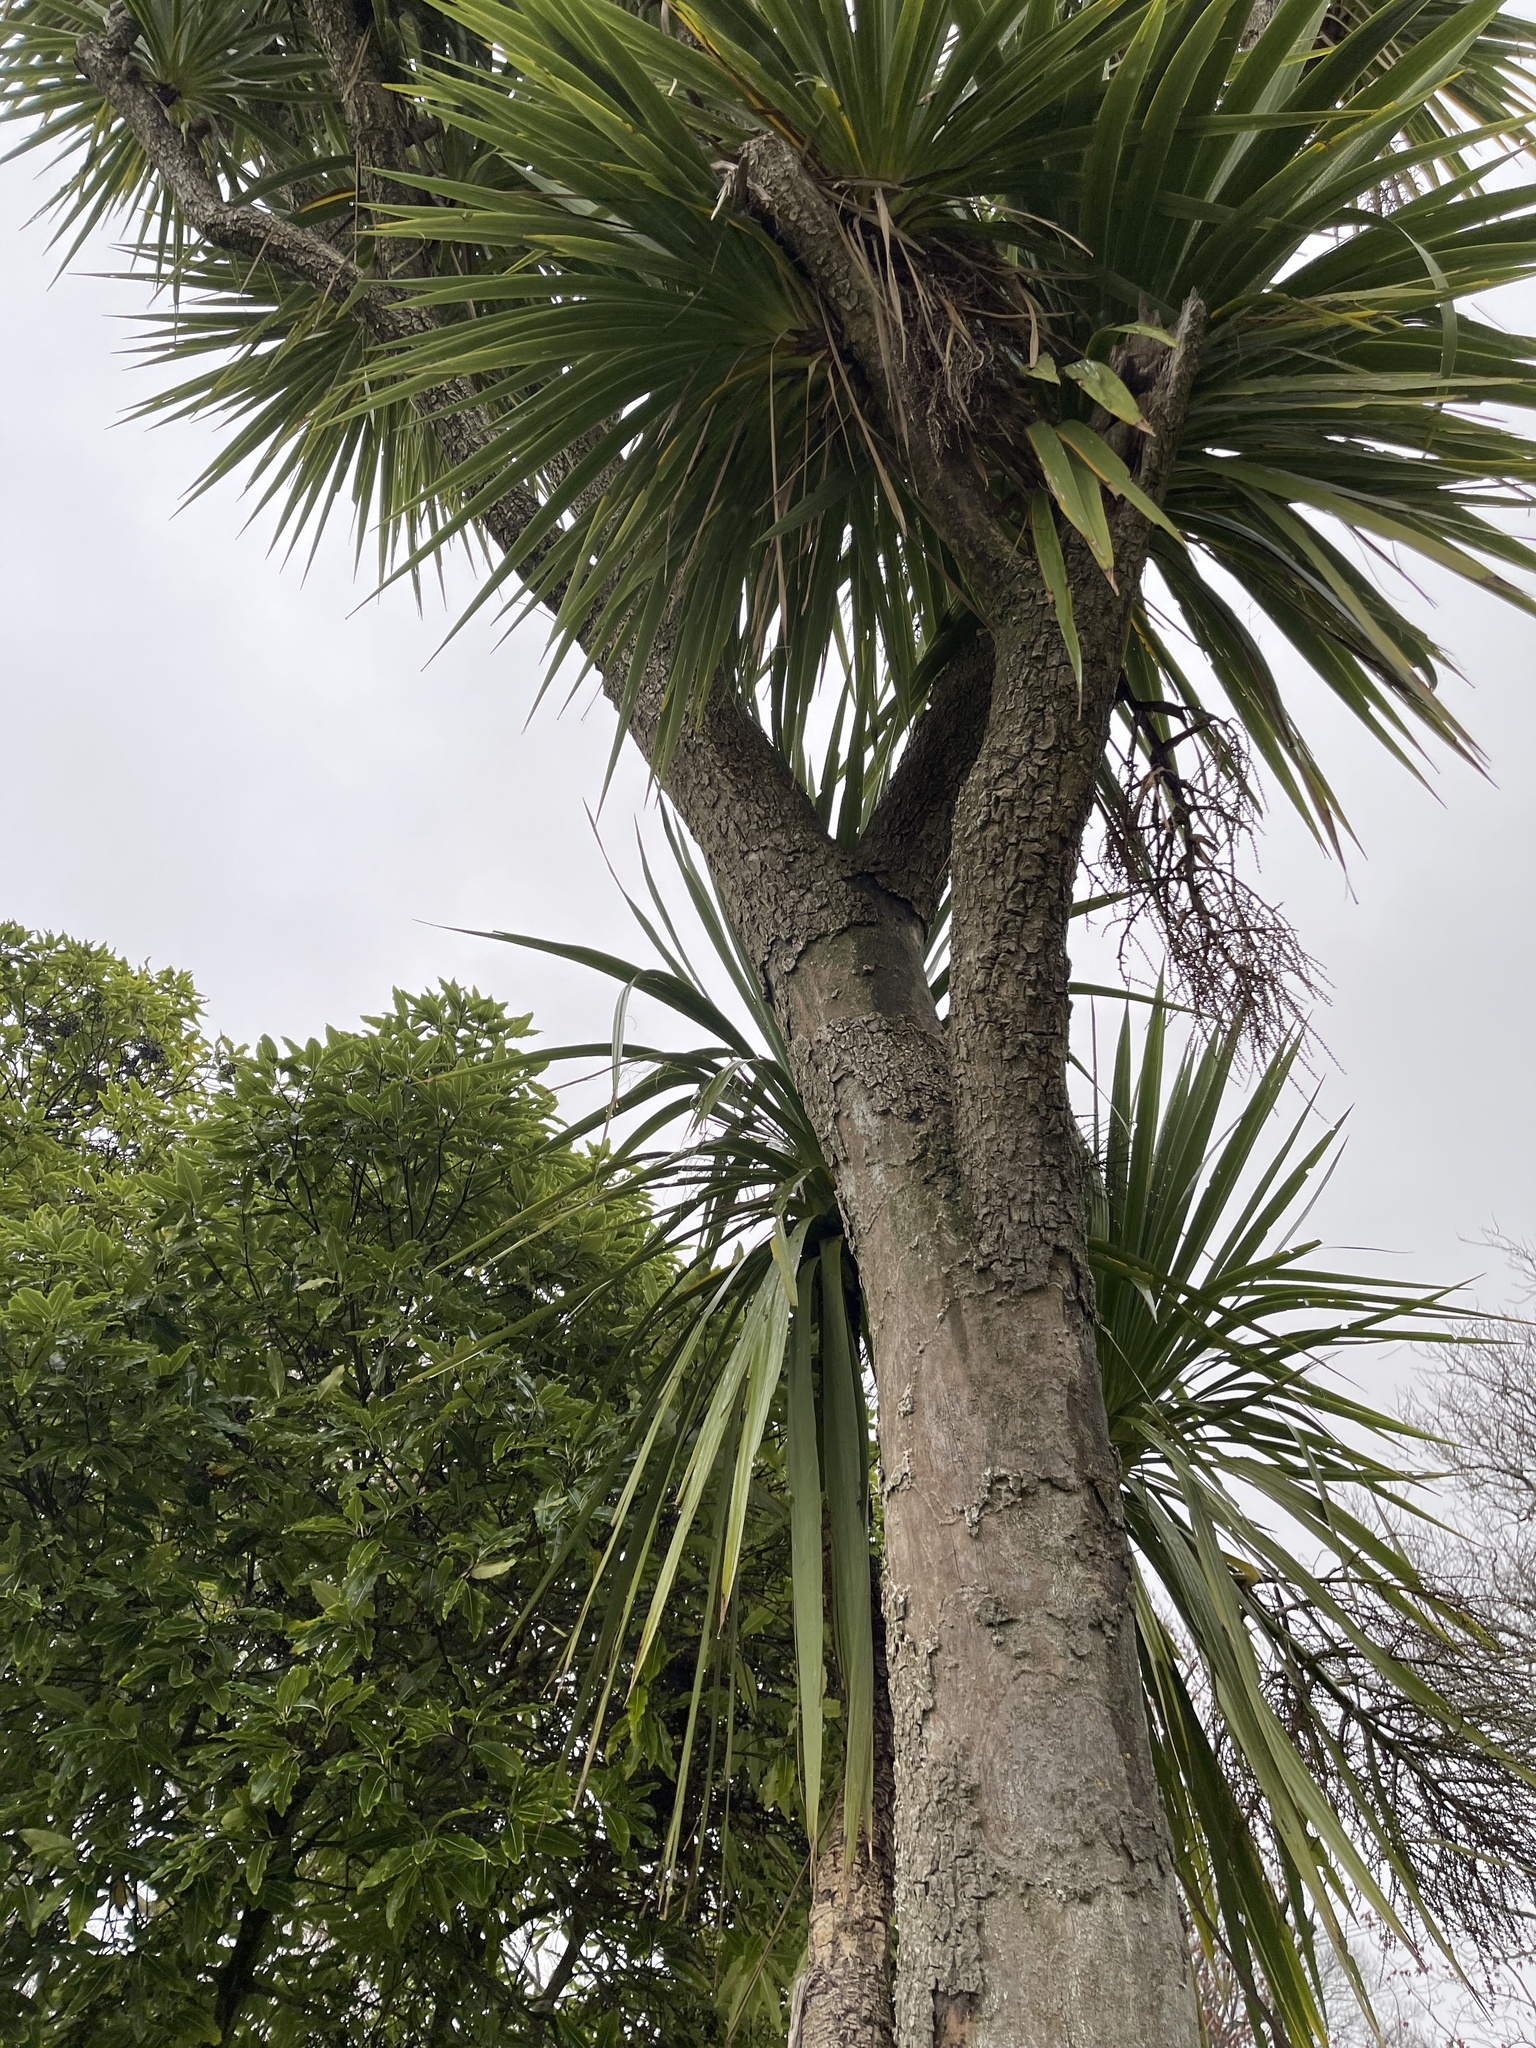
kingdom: Plantae
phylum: Tracheophyta
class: Liliopsida
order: Asparagales
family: Asparagaceae
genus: Cordyline
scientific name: Cordyline australis
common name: Cabbage-palm
